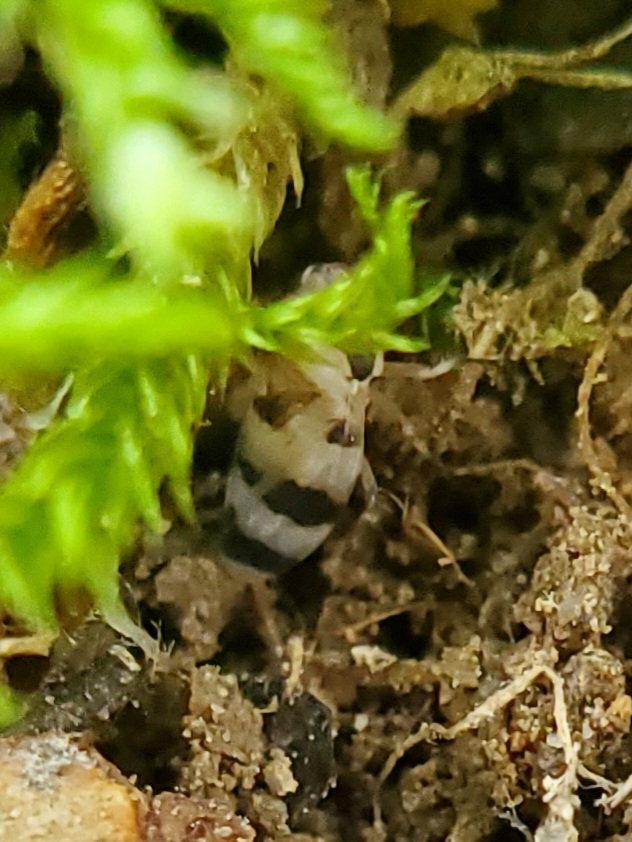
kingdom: Animalia
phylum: Arthropoda
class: Insecta
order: Hemiptera
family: Cicadellidae
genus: Anoscopus
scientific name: Anoscopus serratulae
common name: Leafhopper
